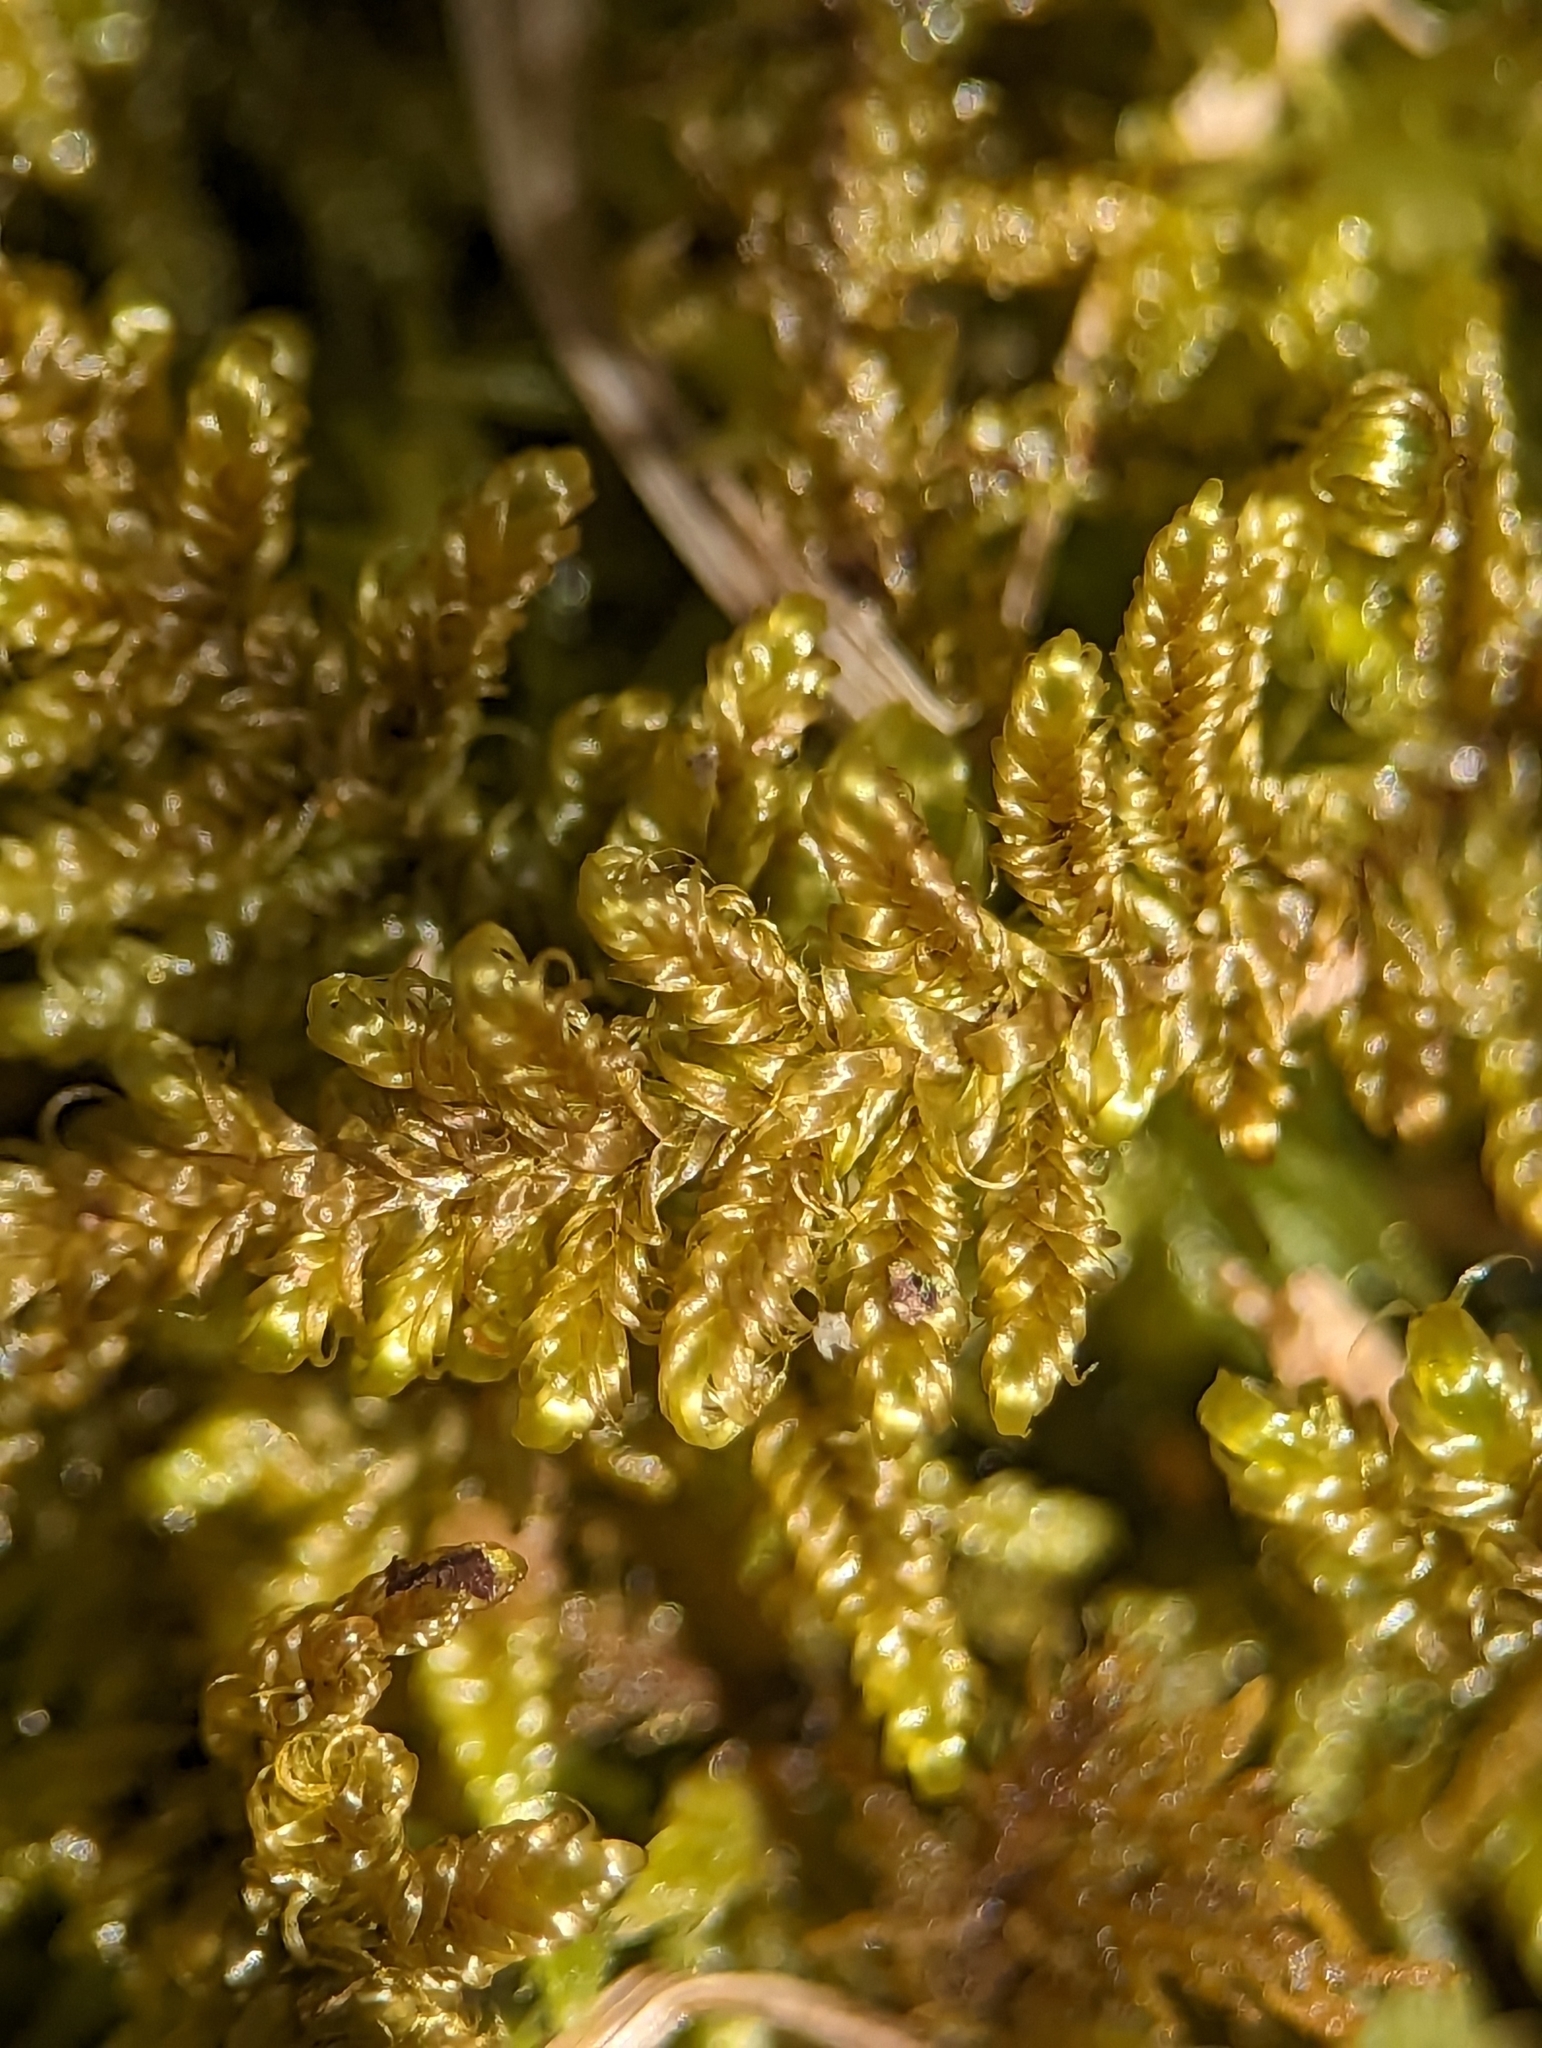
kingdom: Plantae
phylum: Bryophyta
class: Bryopsida
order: Hypnales
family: Callicladiaceae
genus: Callicladium
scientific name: Callicladium imponens
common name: Brocade moss
